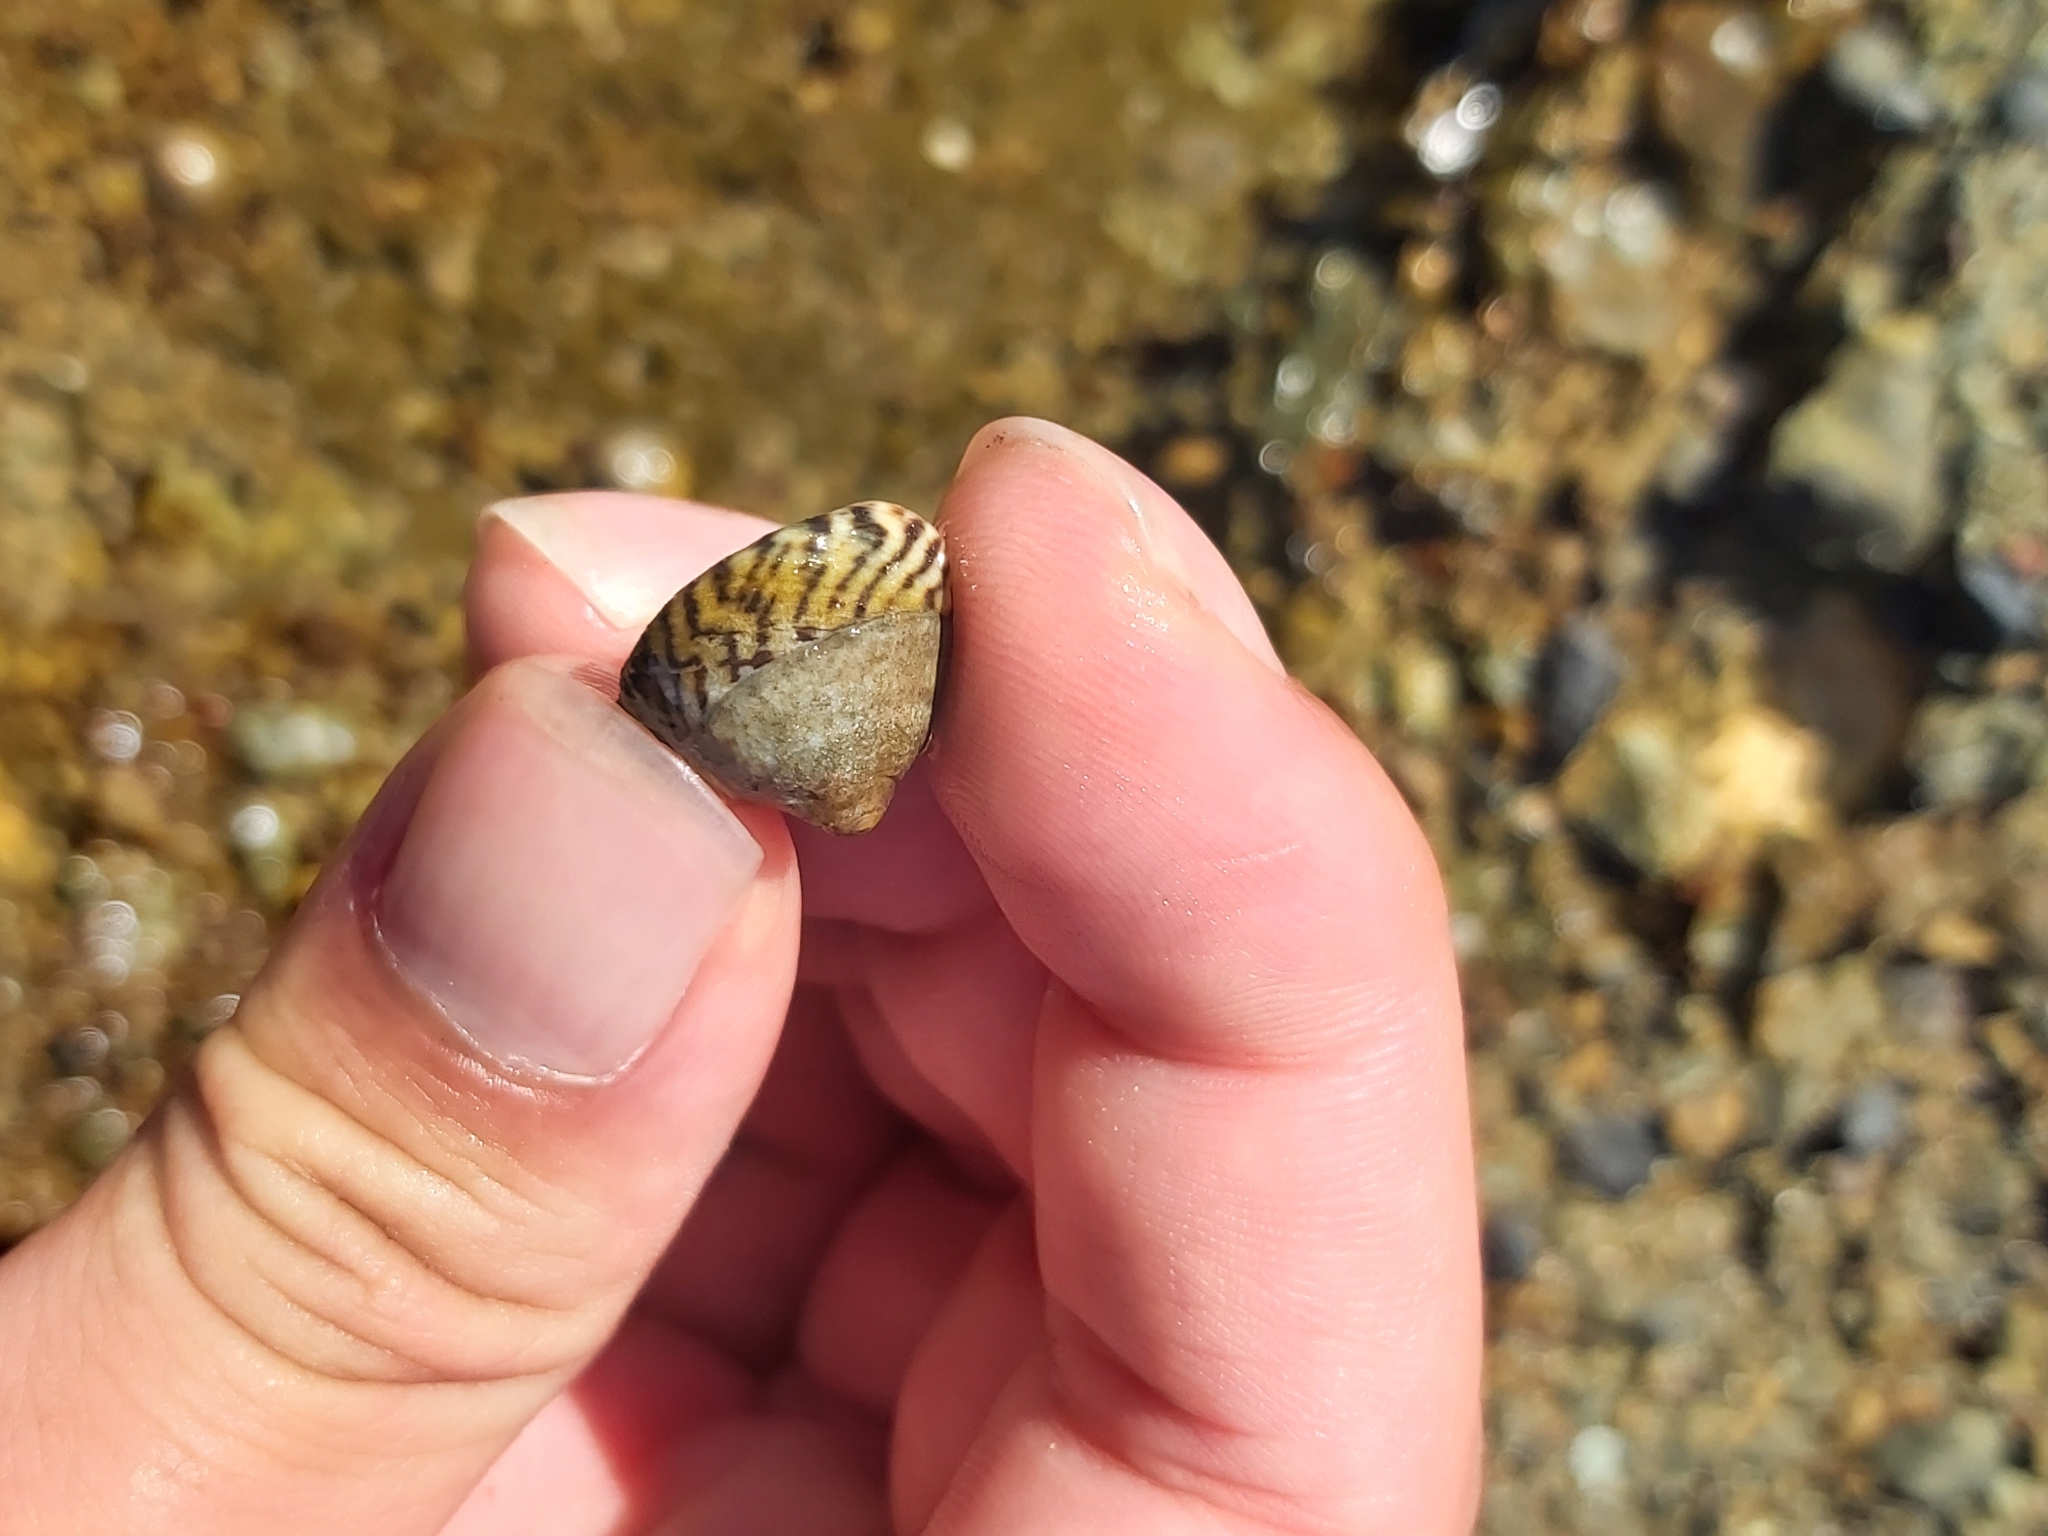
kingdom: Animalia
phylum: Mollusca
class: Gastropoda
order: Littorinimorpha
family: Littorinidae
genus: Bembicium
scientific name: Bembicium nanum
